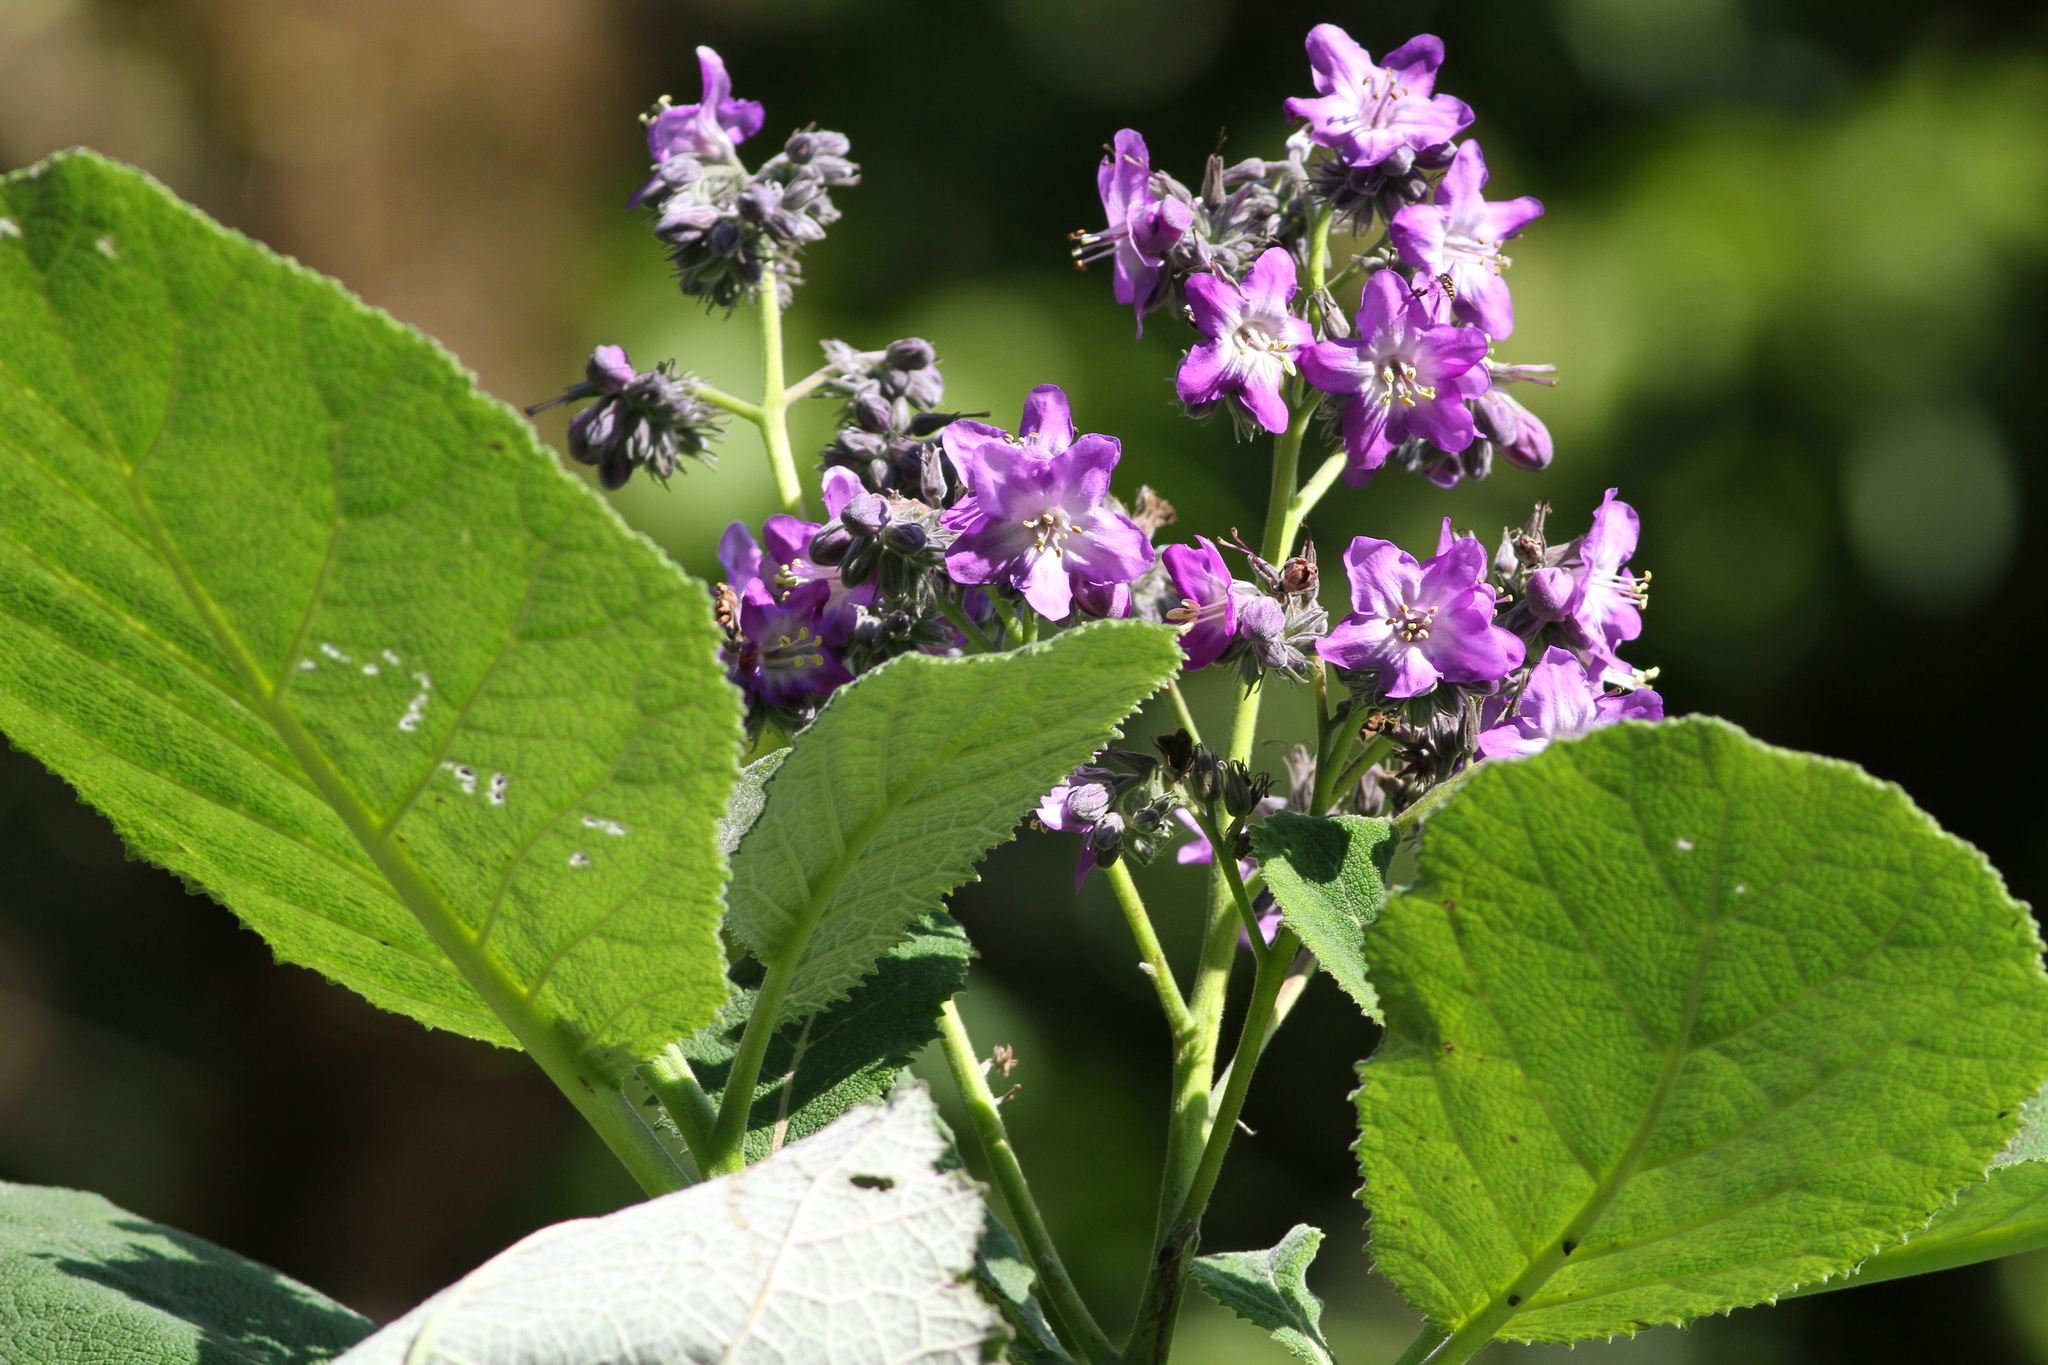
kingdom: Plantae
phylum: Tracheophyta
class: Magnoliopsida
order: Boraginales
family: Namaceae
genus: Wigandia
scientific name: Wigandia urens
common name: Caracus wigandia
